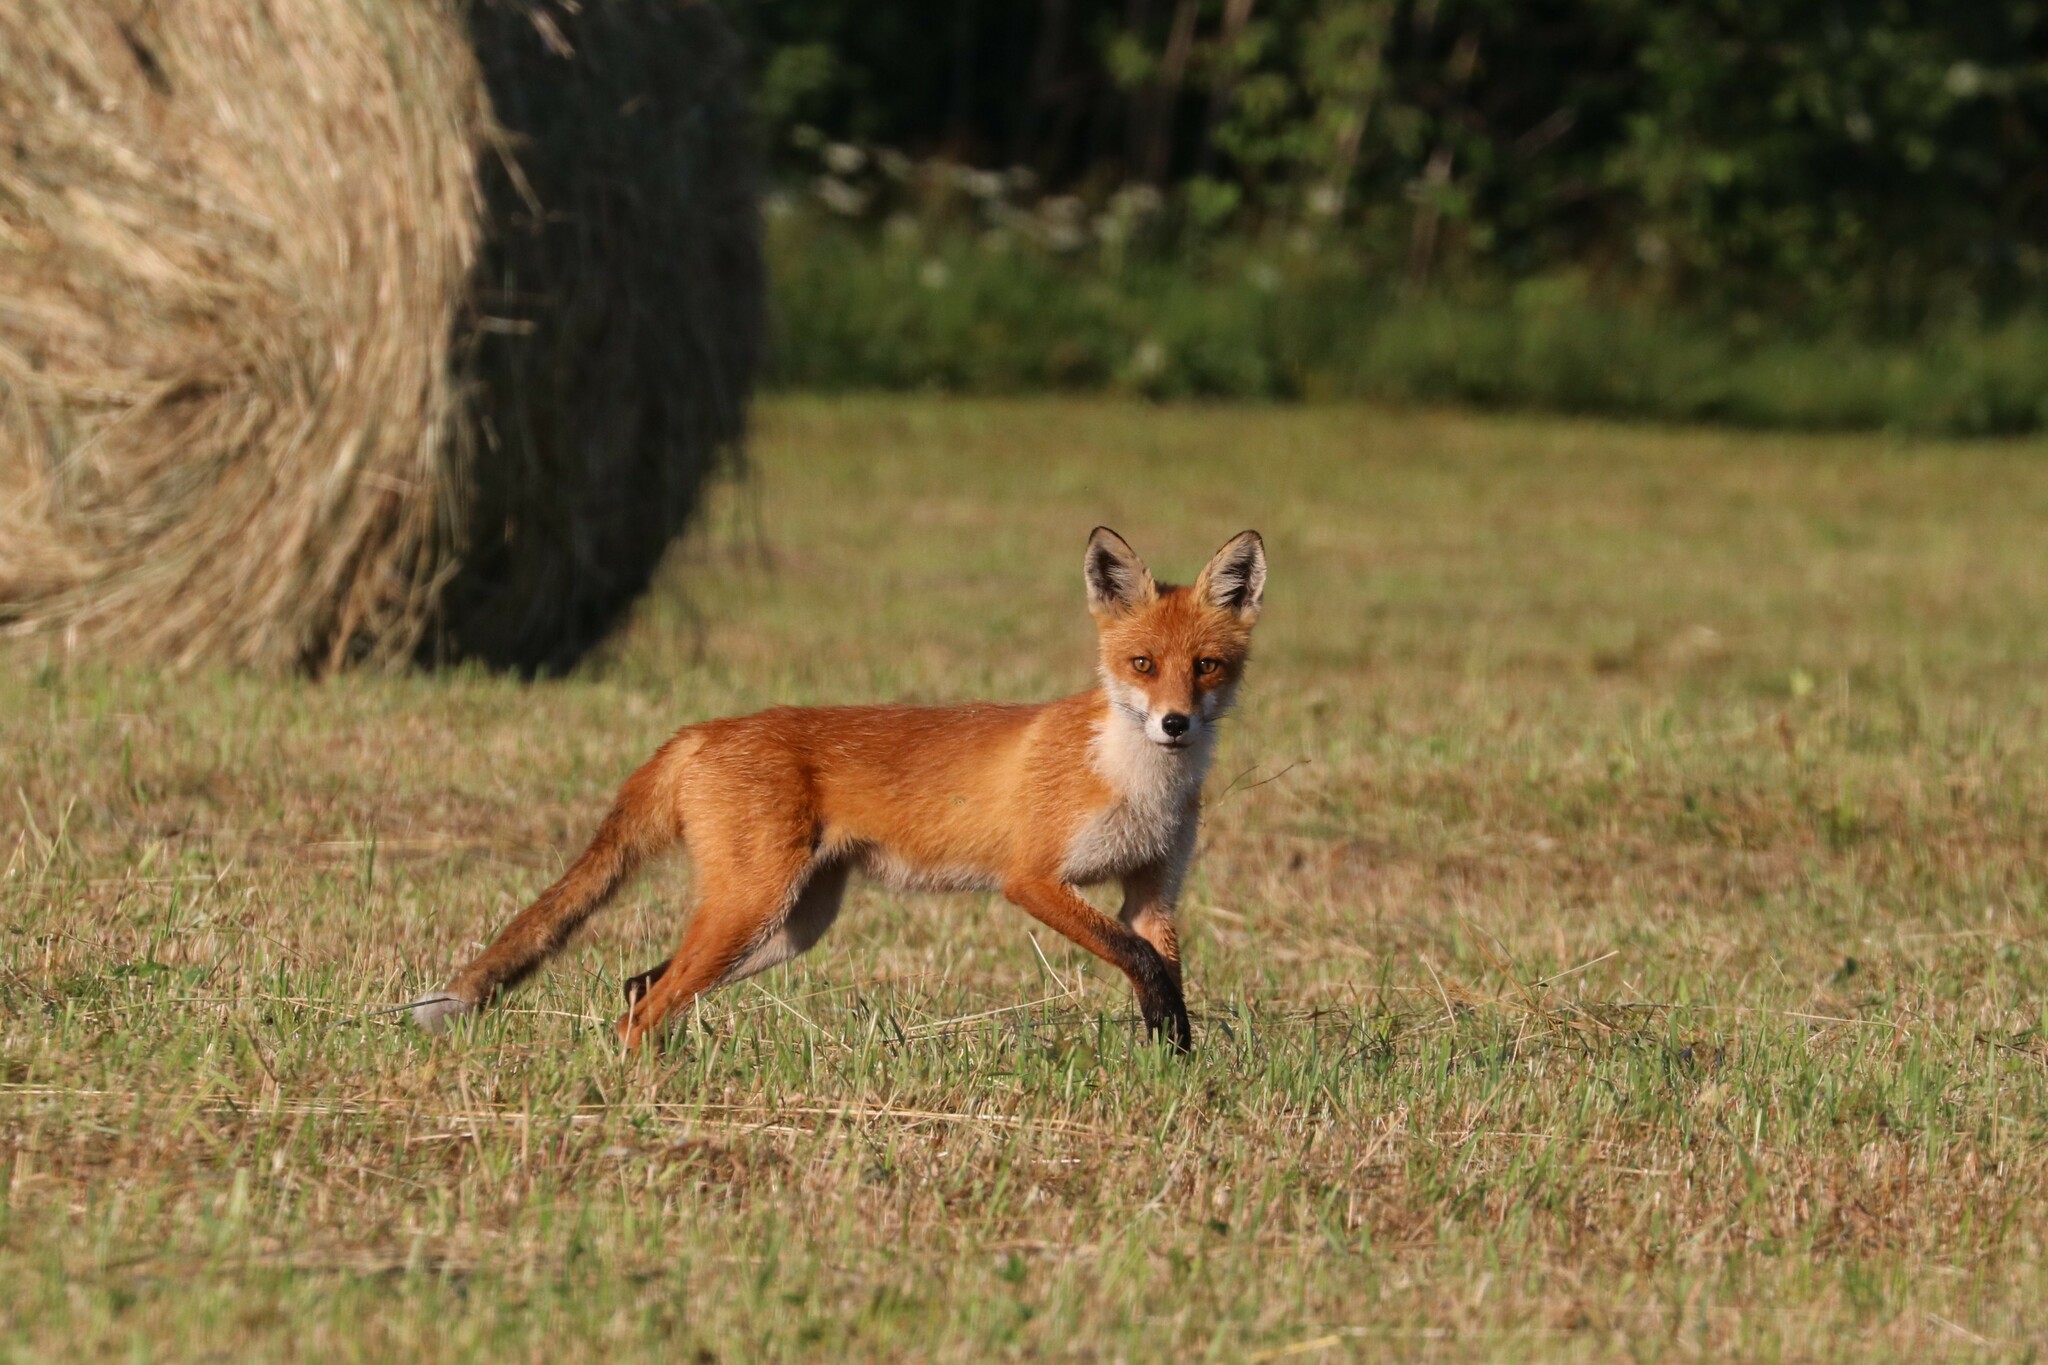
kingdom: Animalia
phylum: Chordata
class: Mammalia
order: Carnivora
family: Canidae
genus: Vulpes
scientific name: Vulpes vulpes
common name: Red fox
